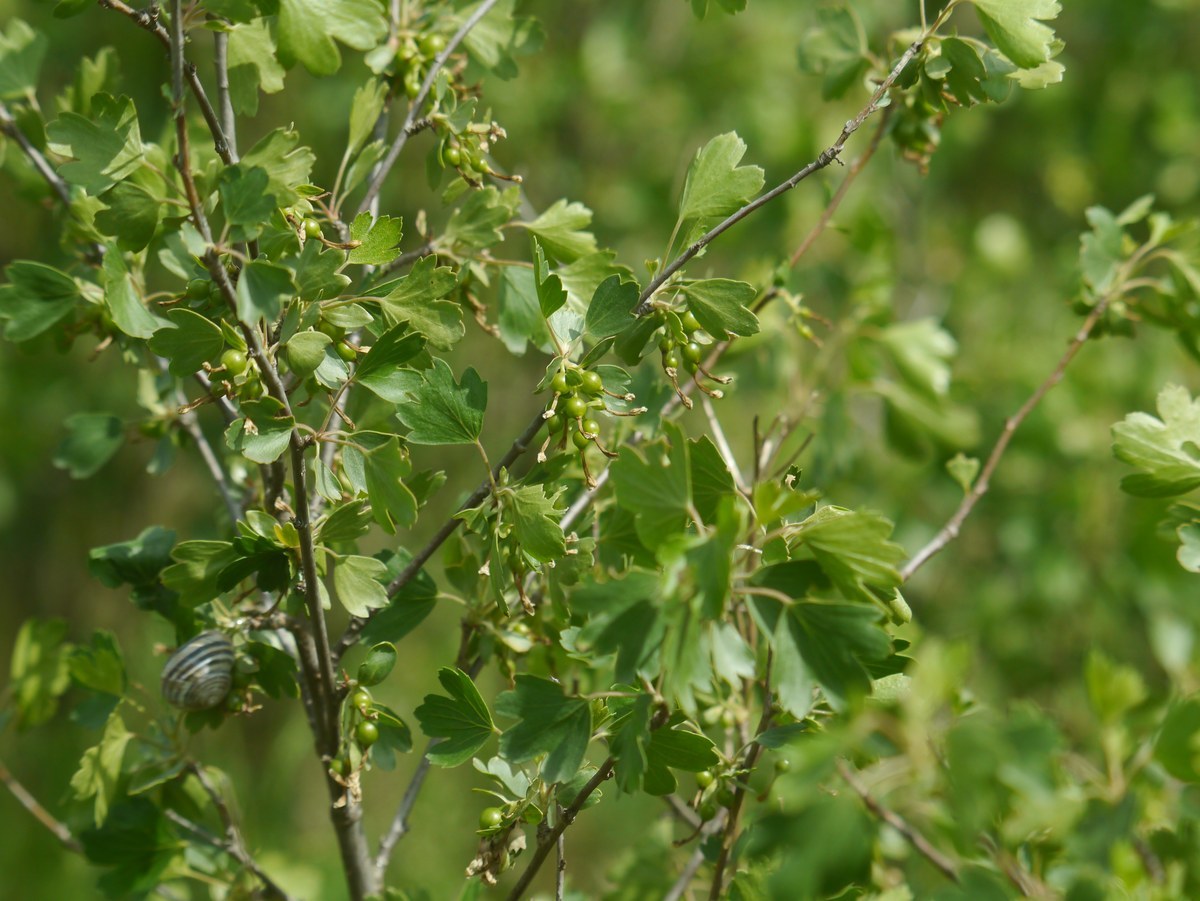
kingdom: Plantae
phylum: Tracheophyta
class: Magnoliopsida
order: Saxifragales
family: Grossulariaceae
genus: Ribes
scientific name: Ribes aureum
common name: Golden currant
